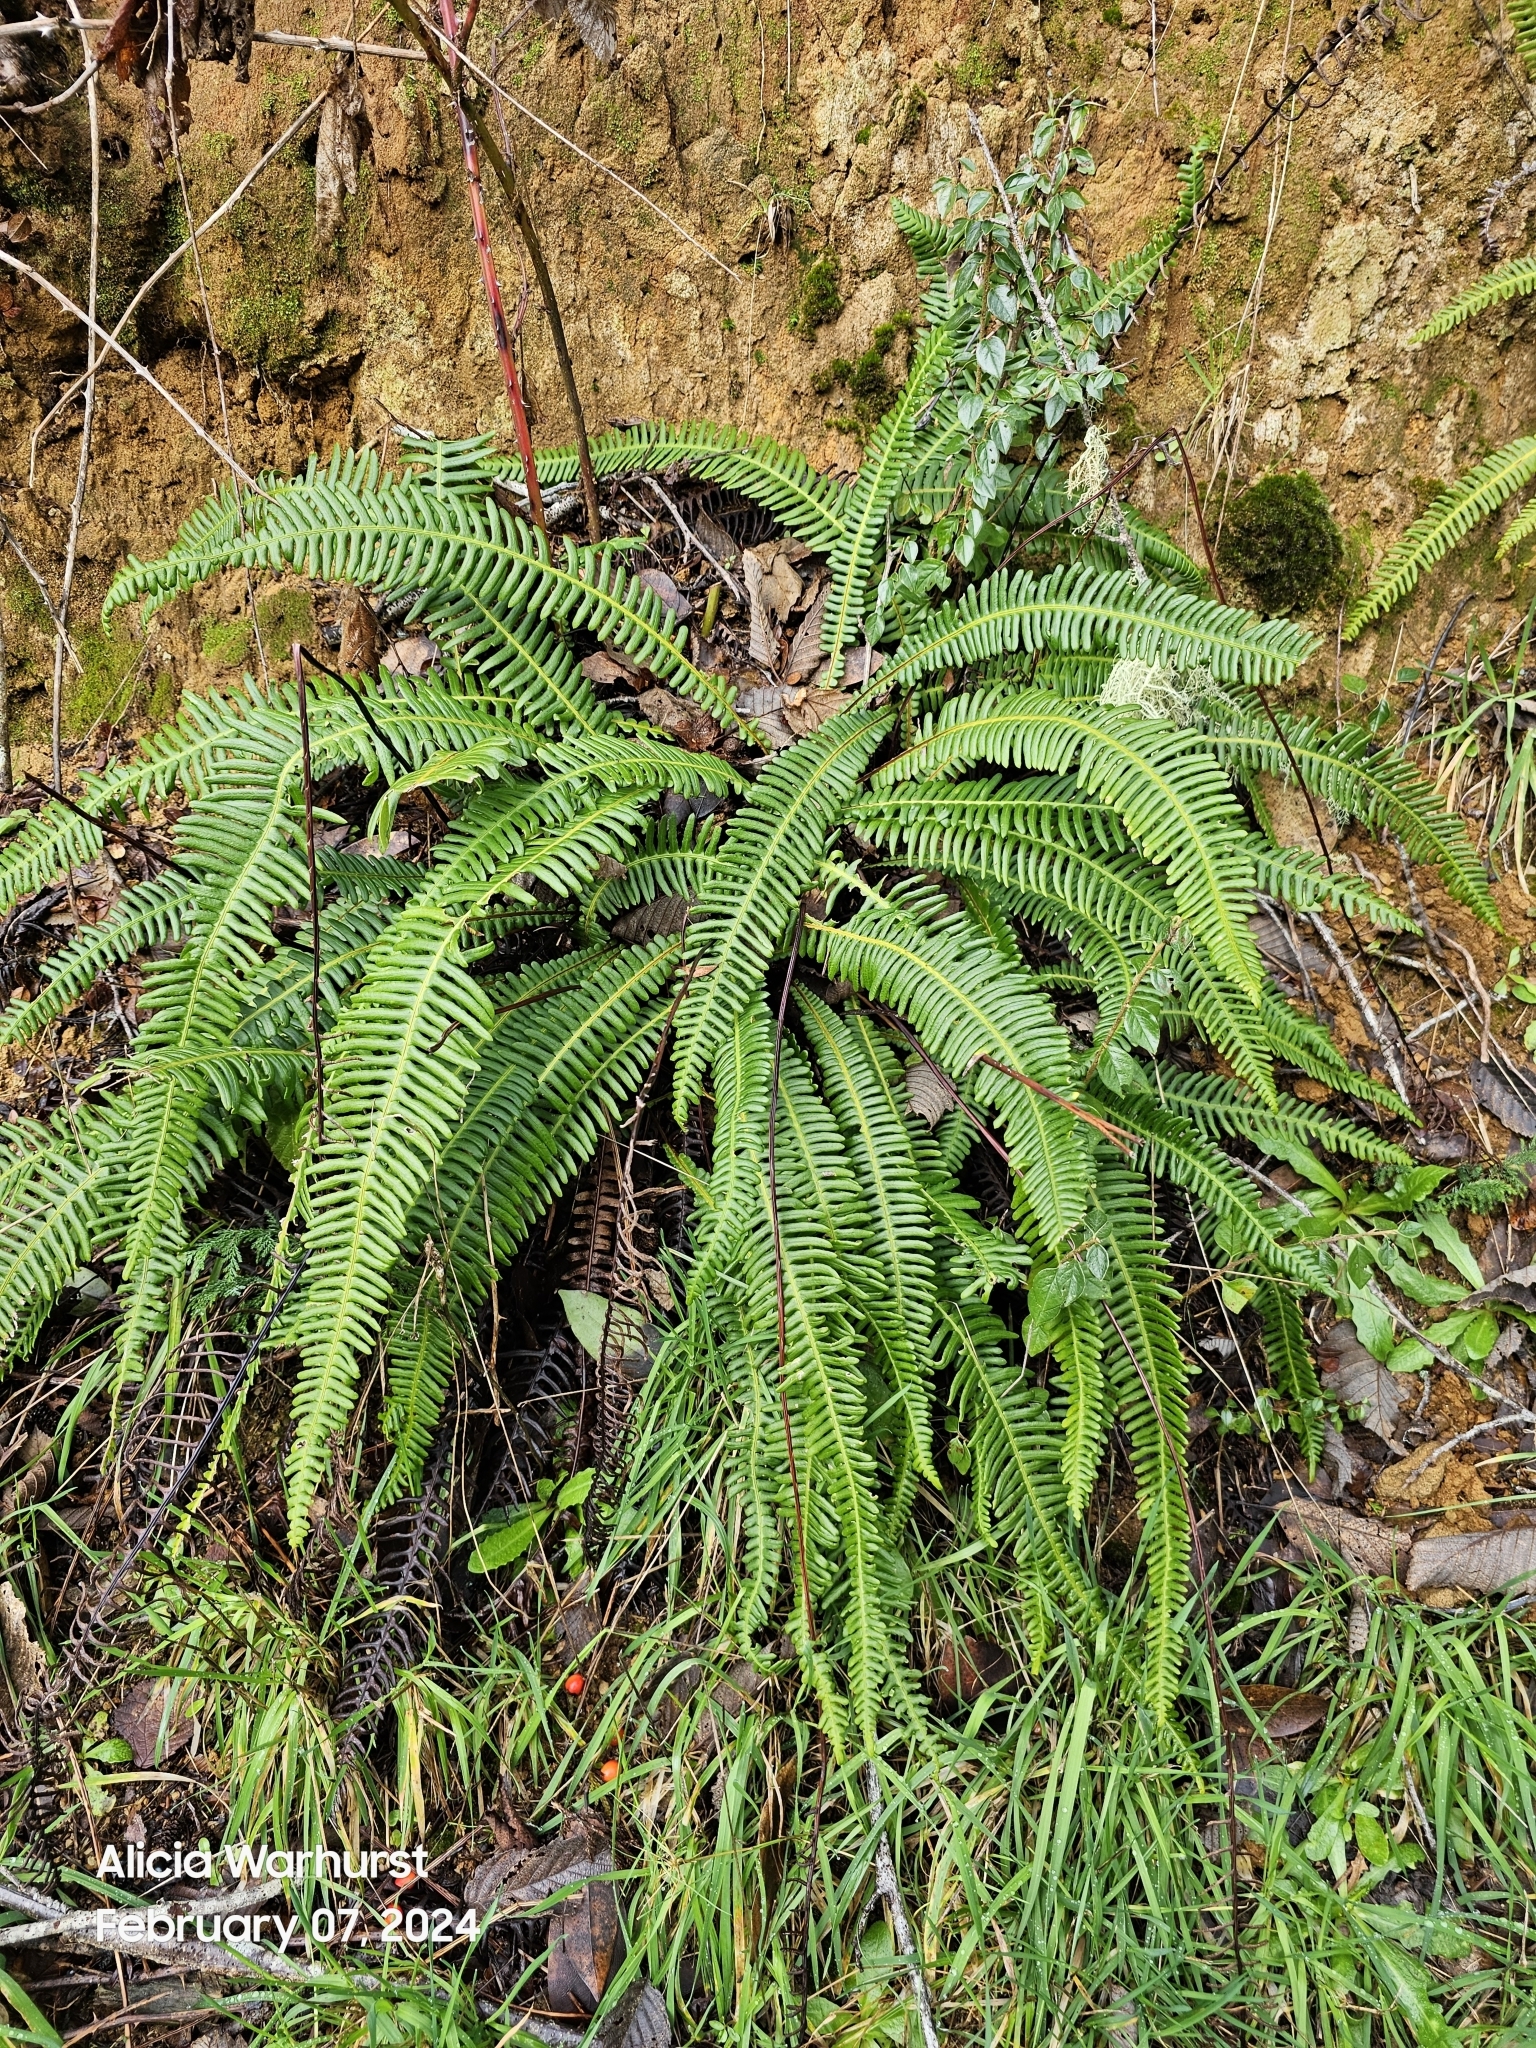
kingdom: Plantae
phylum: Tracheophyta
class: Polypodiopsida
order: Polypodiales
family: Blechnaceae
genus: Struthiopteris
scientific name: Struthiopteris spicant
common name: Deer fern
